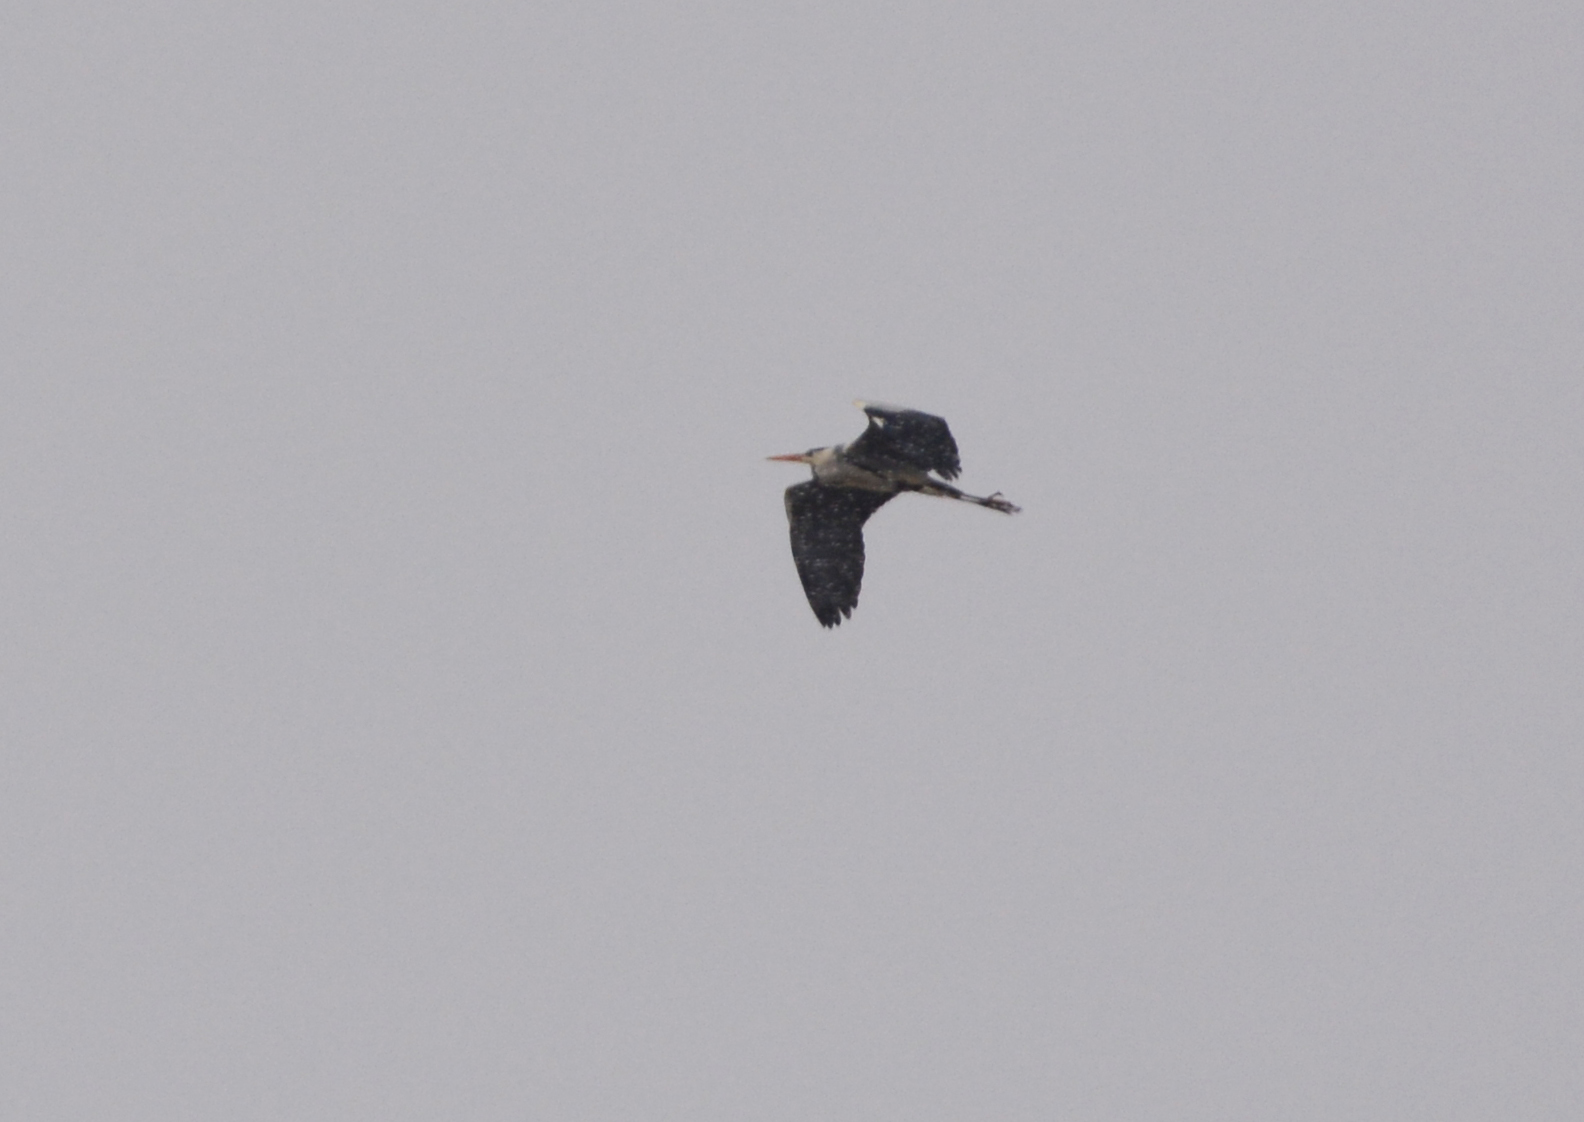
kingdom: Animalia
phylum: Chordata
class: Aves
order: Pelecaniformes
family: Ardeidae
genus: Ardea
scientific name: Ardea cinerea
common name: Grey heron
